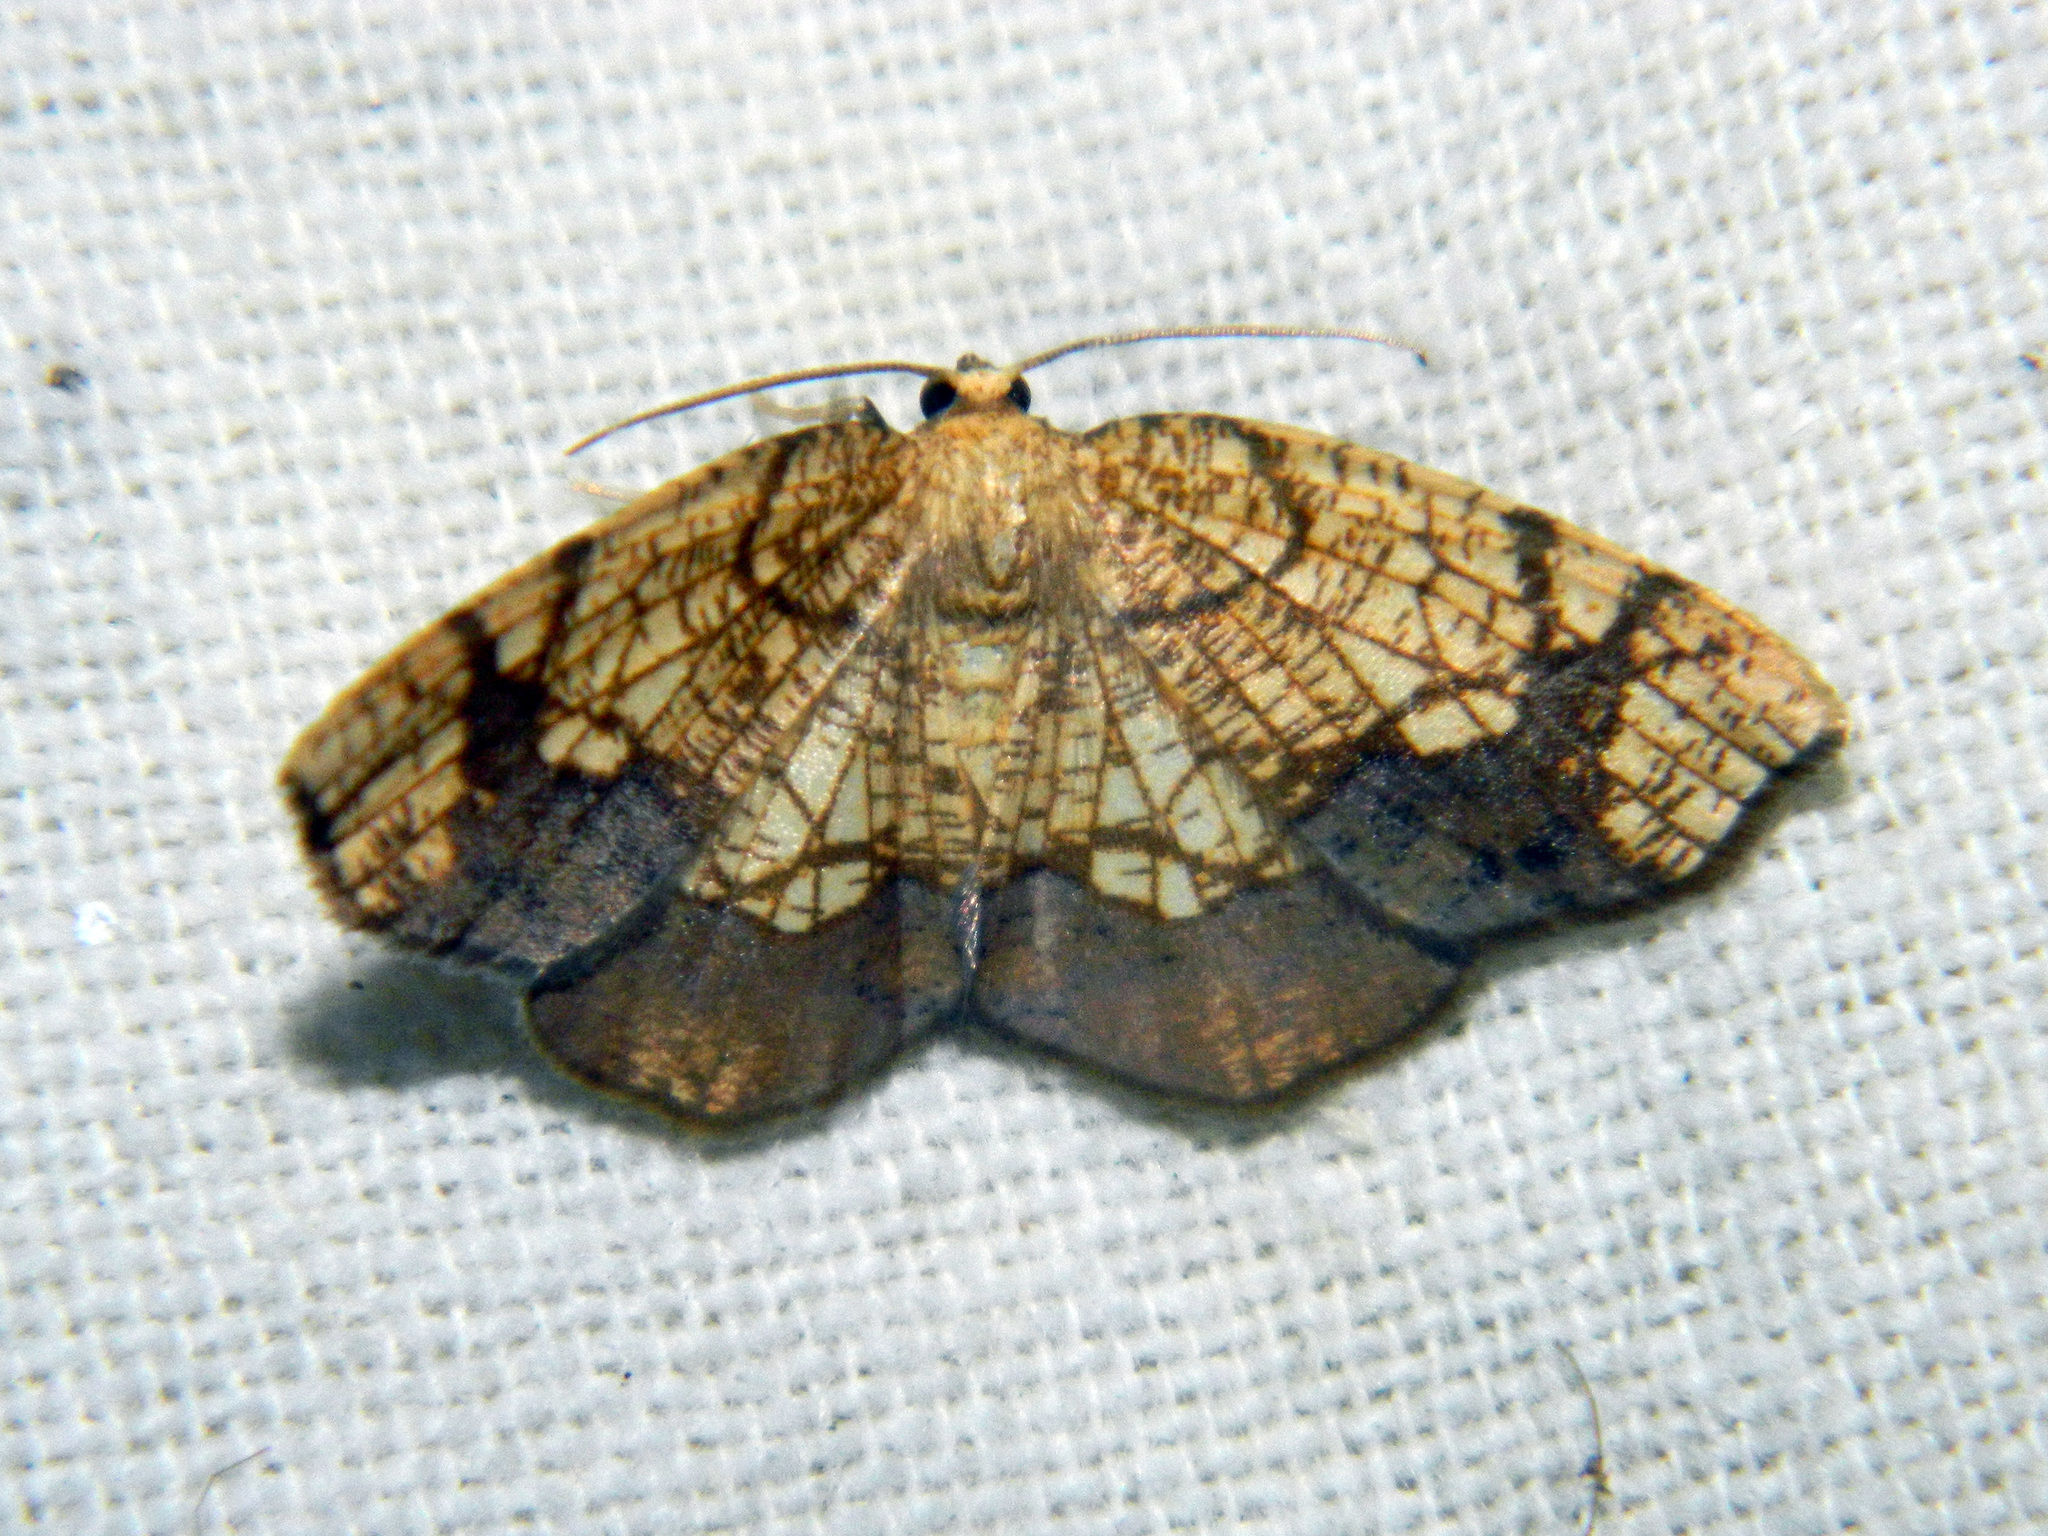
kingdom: Animalia
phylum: Arthropoda
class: Insecta
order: Lepidoptera
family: Geometridae
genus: Nematocampa
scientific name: Nematocampa resistaria
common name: Horned spanworm moth
